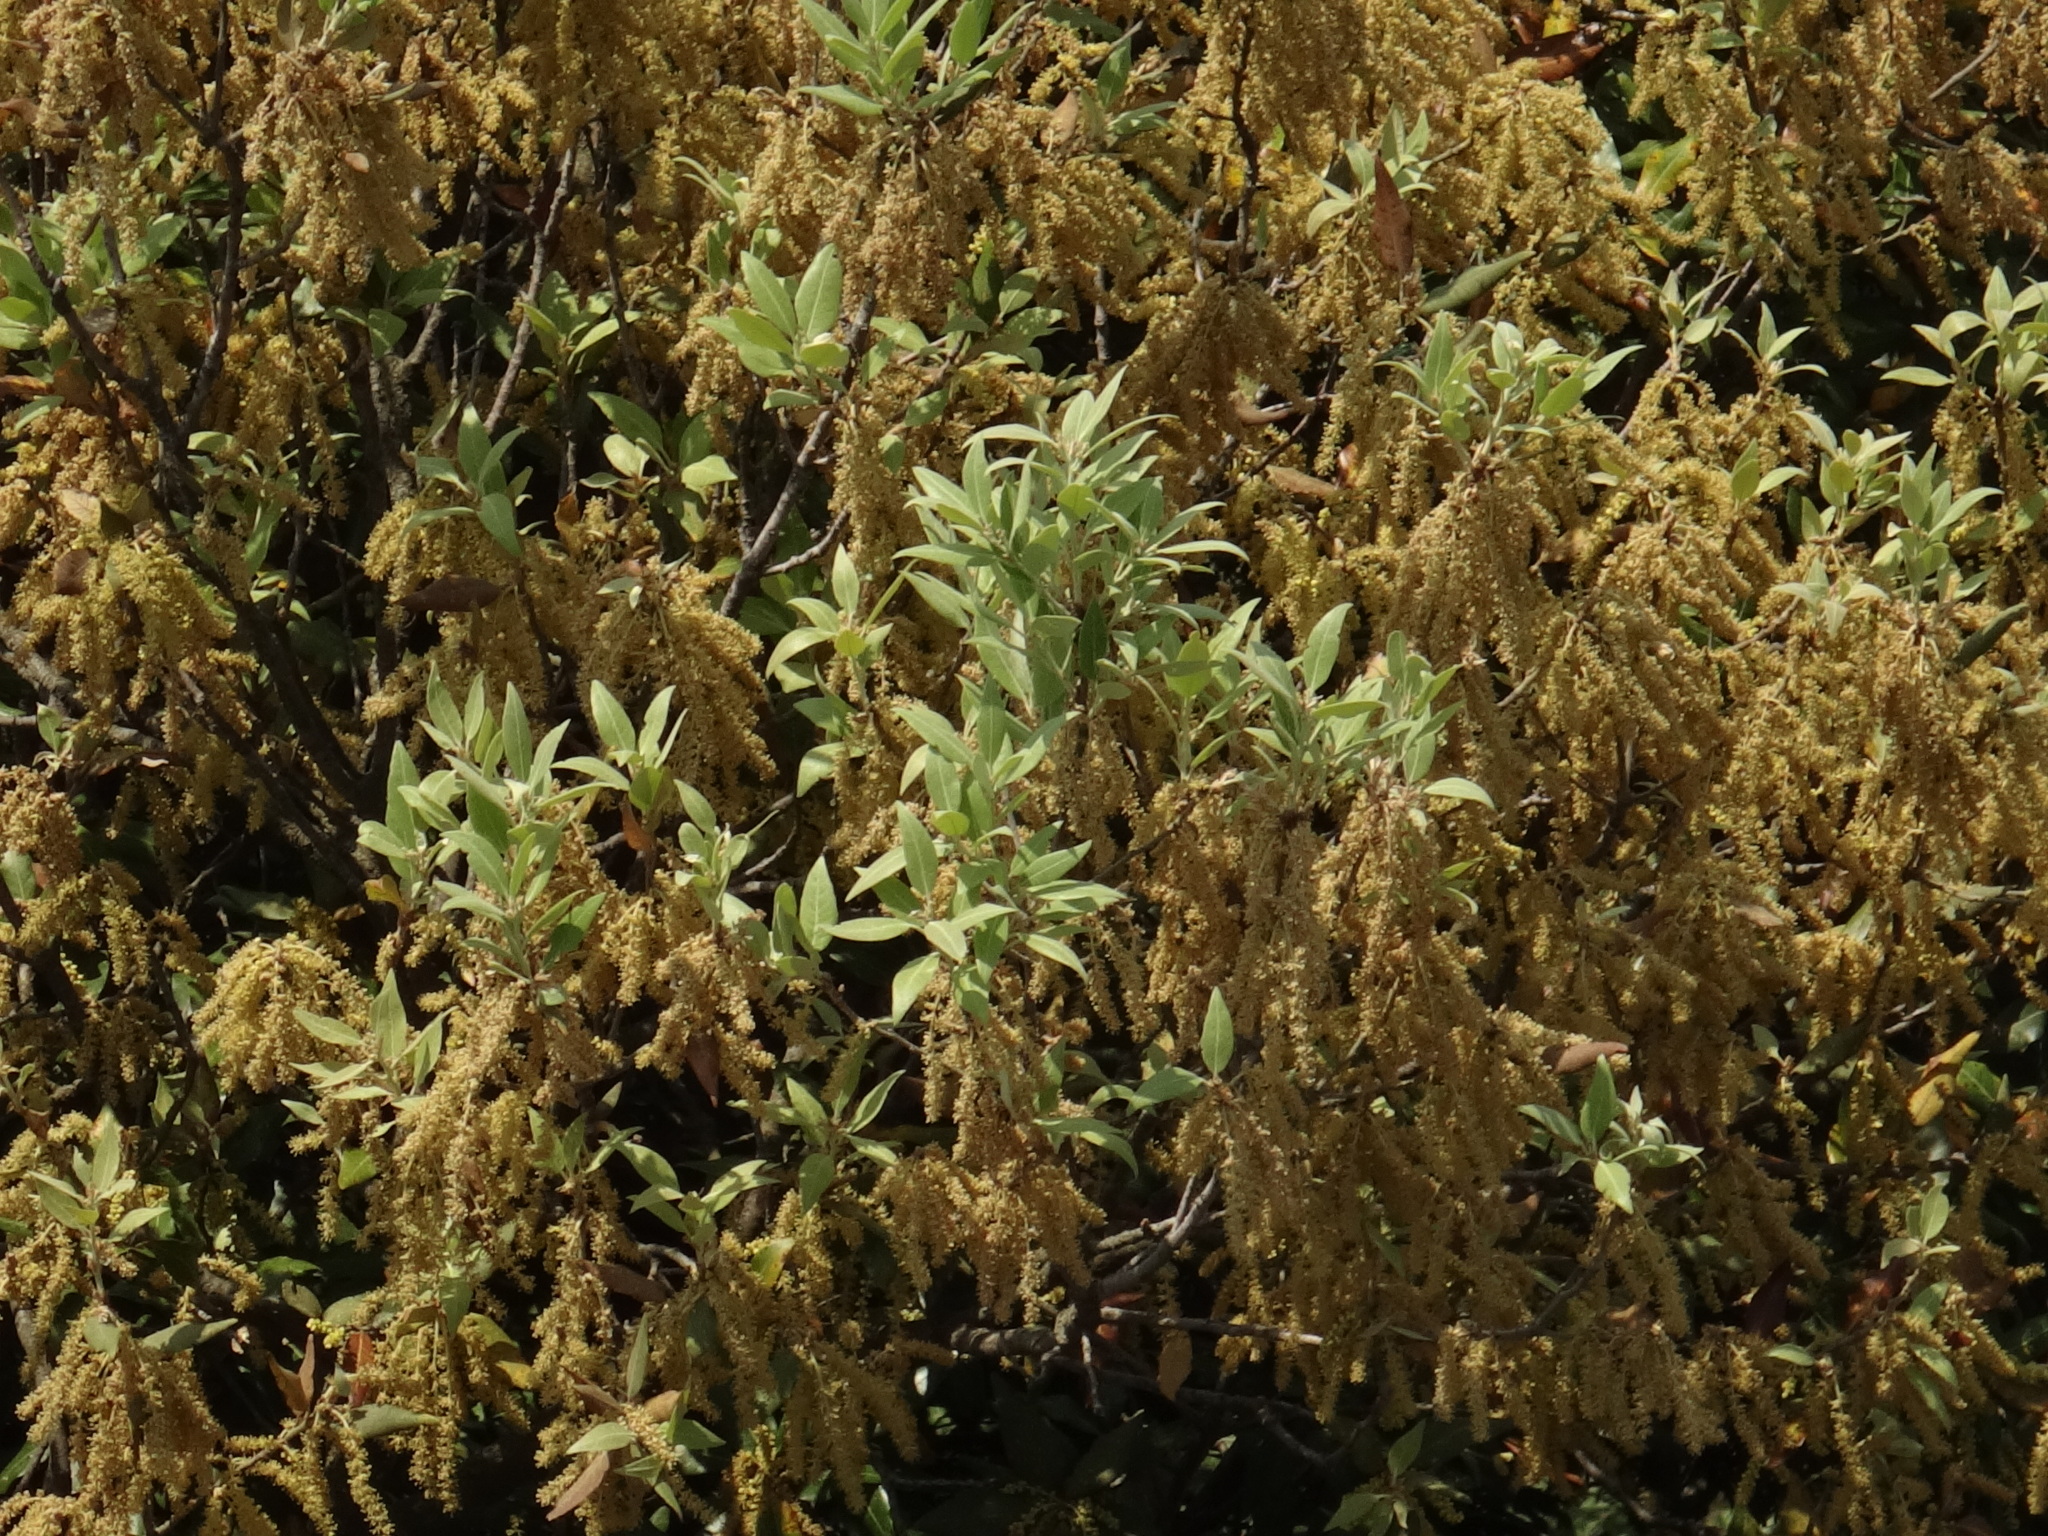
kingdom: Plantae
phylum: Tracheophyta
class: Magnoliopsida
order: Fagales
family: Fagaceae
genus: Quercus
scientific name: Quercus ilex
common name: Evergreen oak
